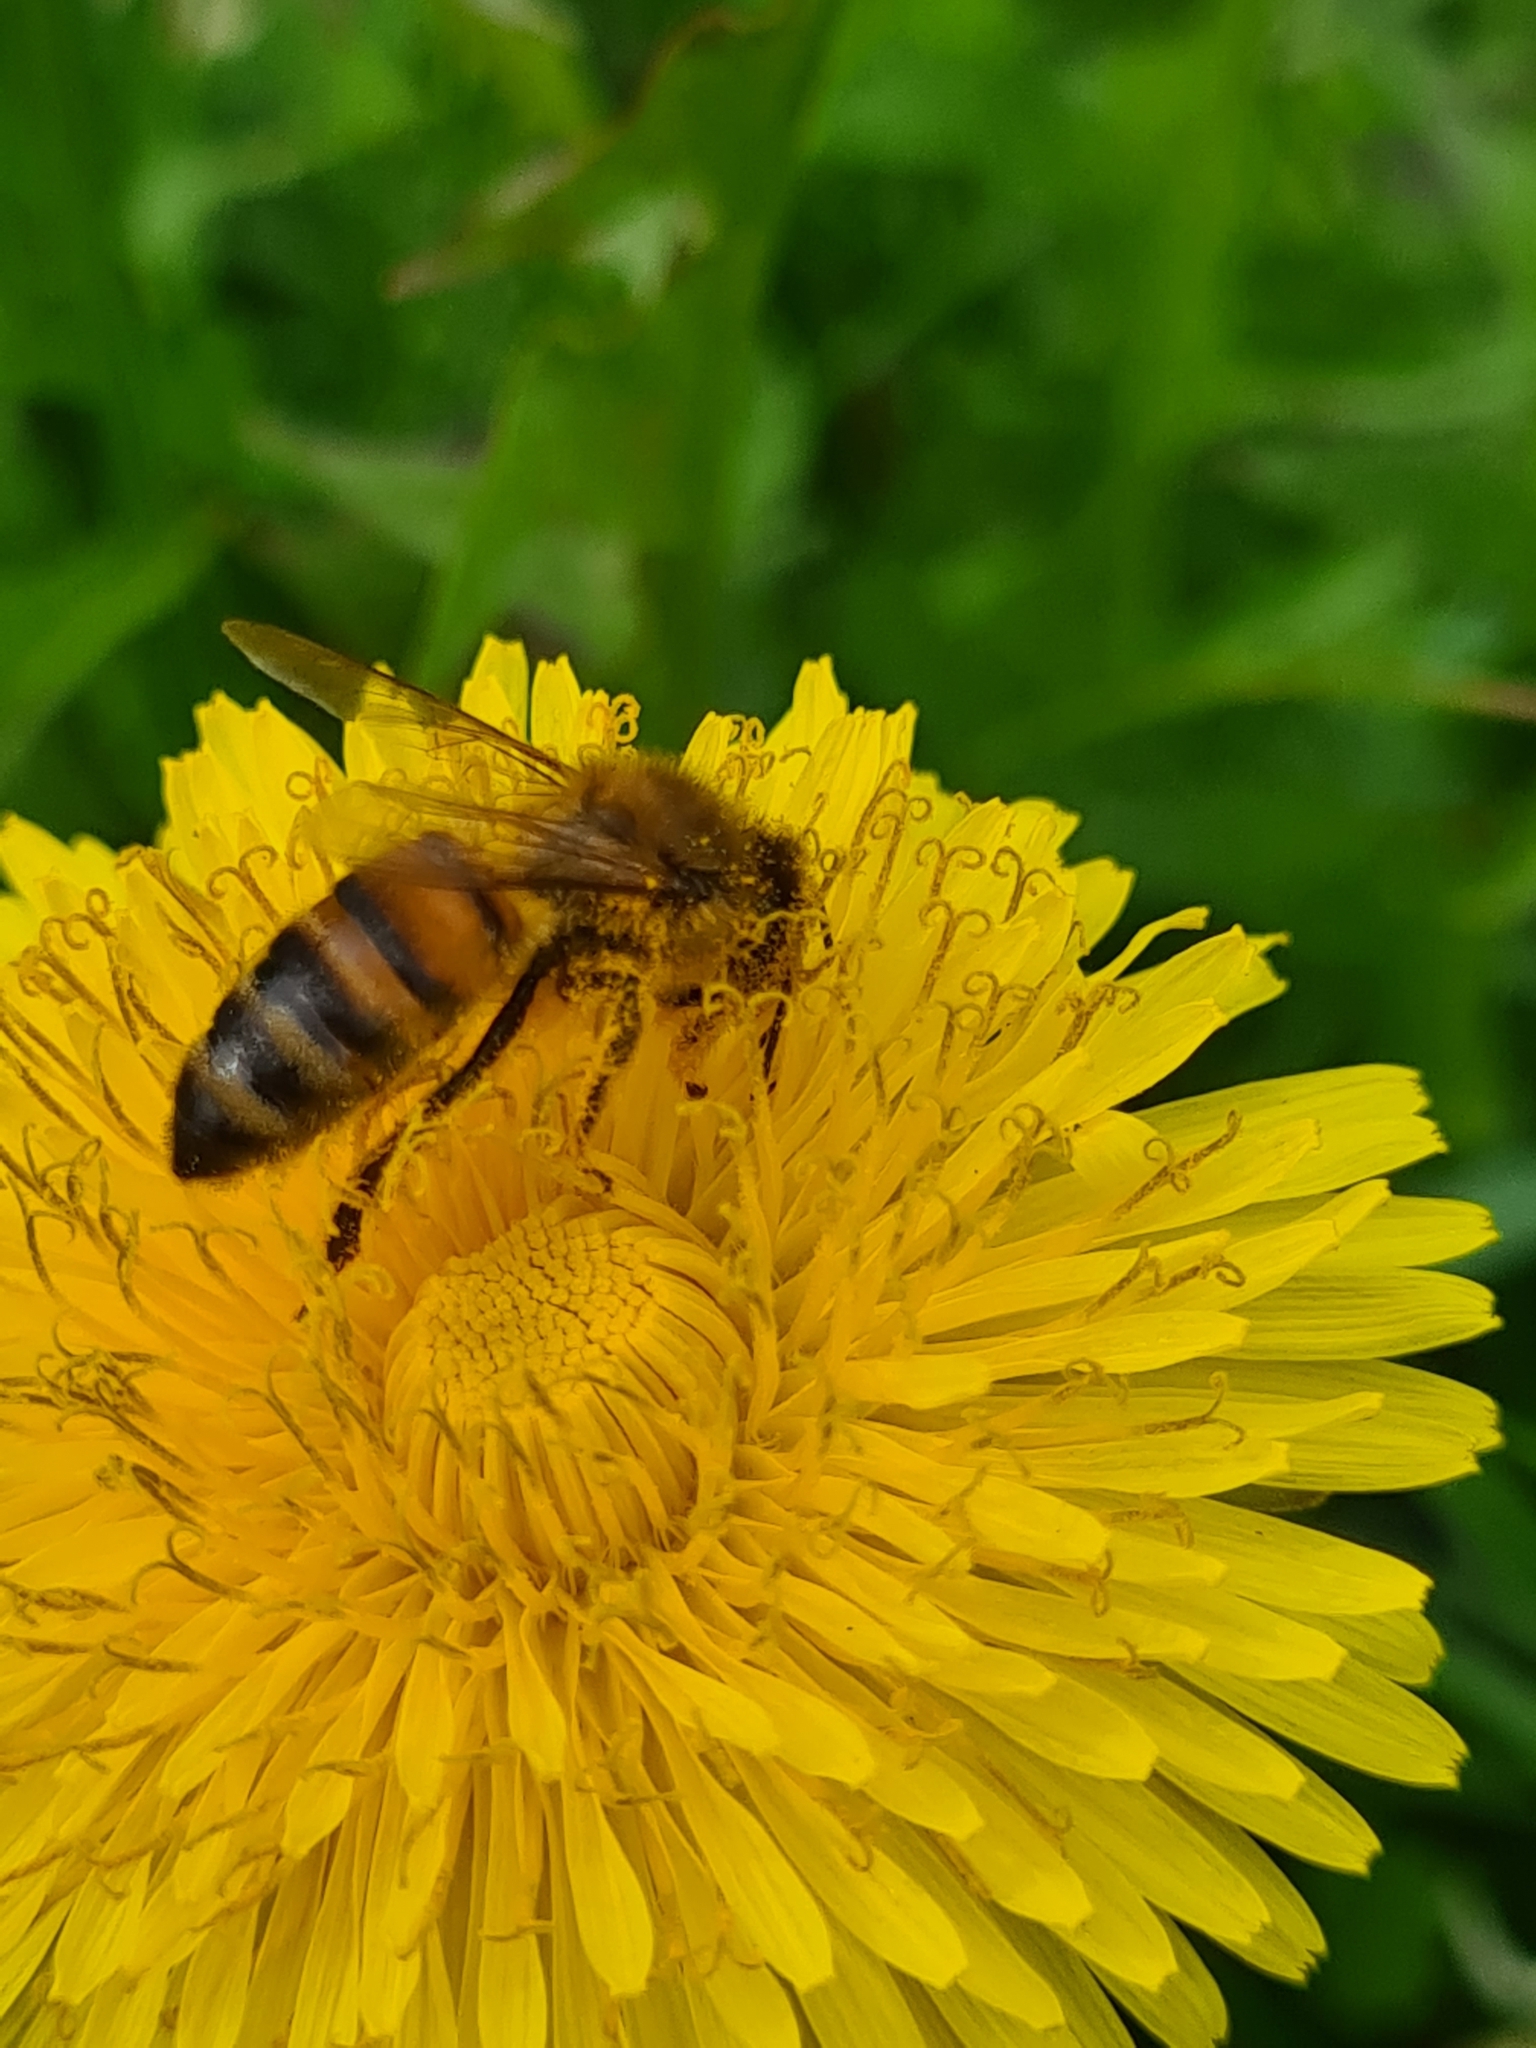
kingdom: Animalia
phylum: Arthropoda
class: Insecta
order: Hymenoptera
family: Apidae
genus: Apis
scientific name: Apis mellifera
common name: Honey bee
